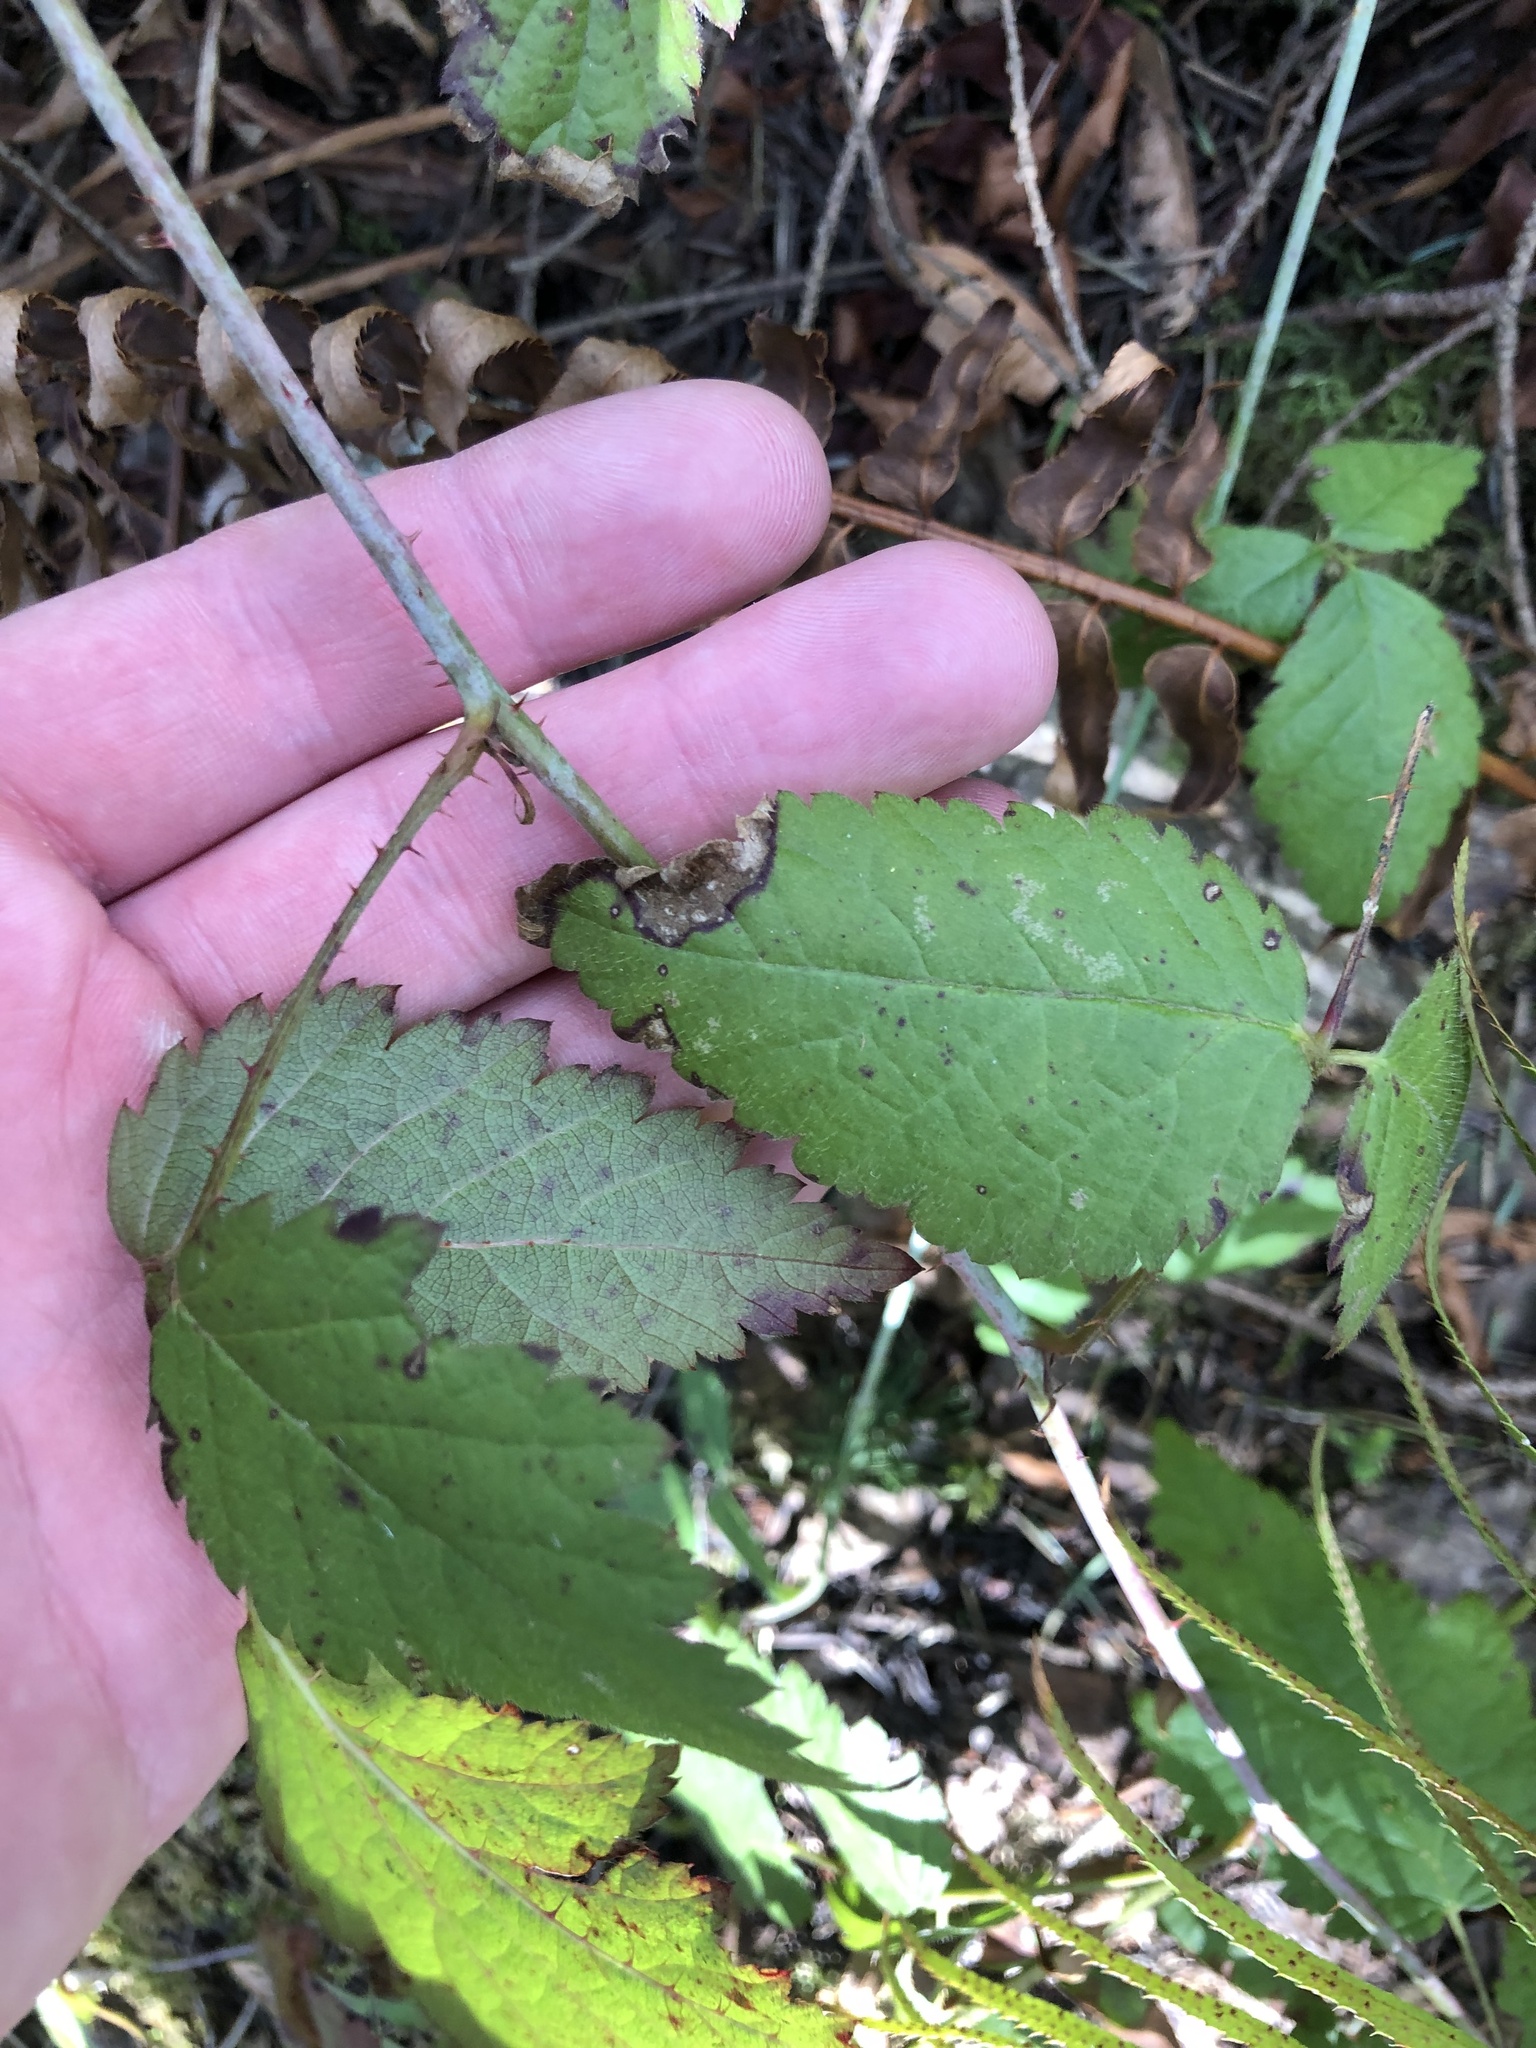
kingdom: Plantae
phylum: Tracheophyta
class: Magnoliopsida
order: Rosales
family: Rosaceae
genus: Rubus
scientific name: Rubus ursinus
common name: Pacific blackberry
